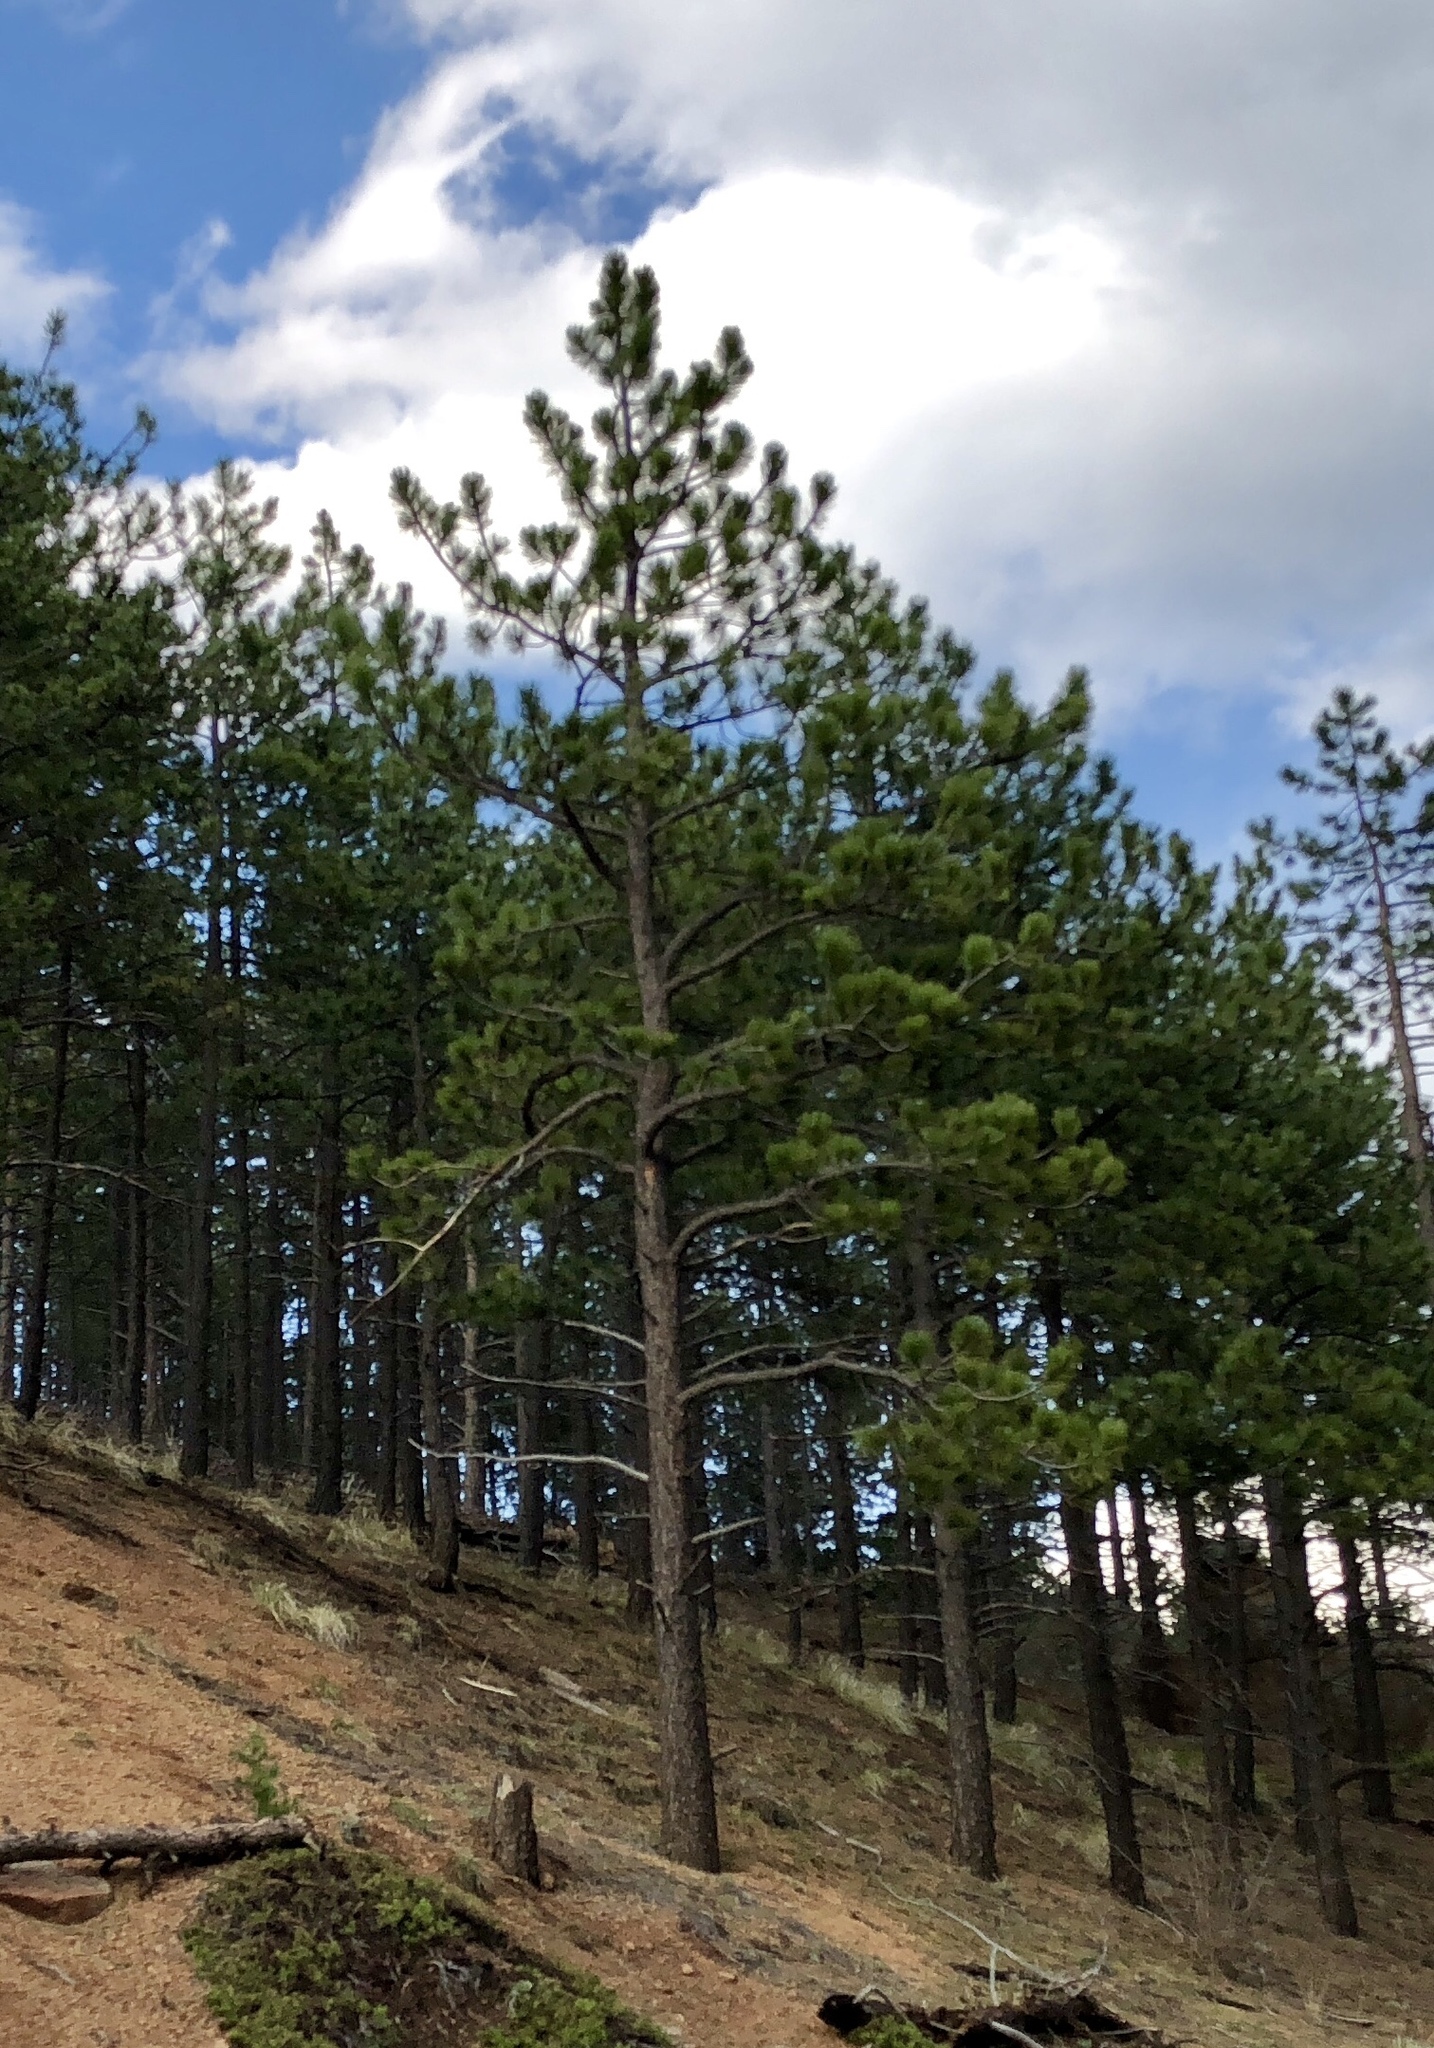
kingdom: Plantae
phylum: Tracheophyta
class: Pinopsida
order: Pinales
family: Pinaceae
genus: Pinus
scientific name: Pinus ponderosa
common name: Western yellow-pine
